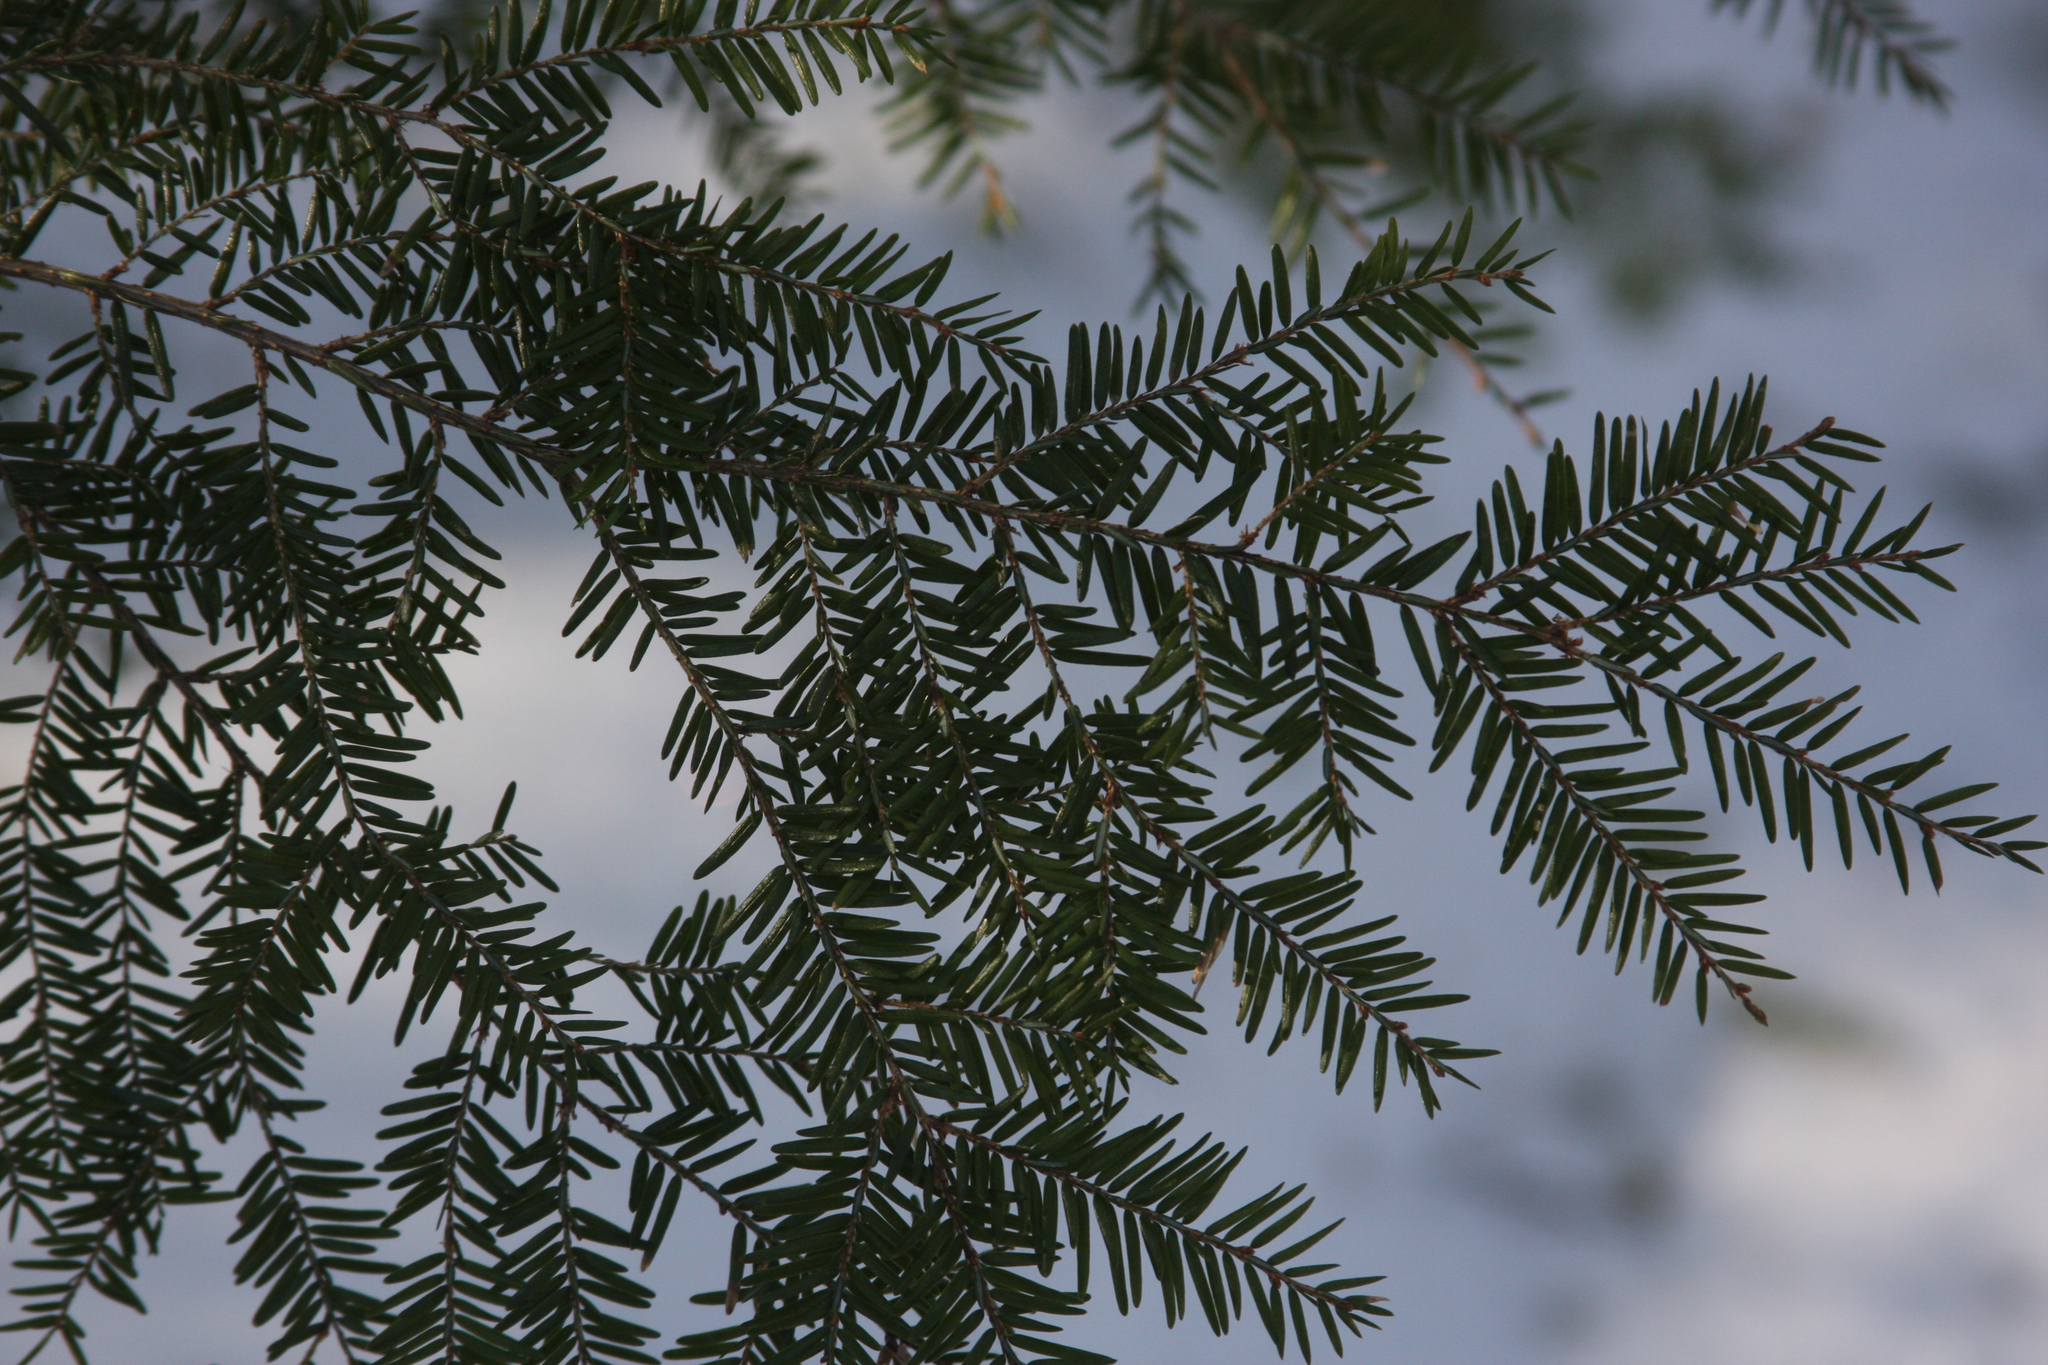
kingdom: Plantae
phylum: Tracheophyta
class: Pinopsida
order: Pinales
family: Pinaceae
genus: Tsuga
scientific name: Tsuga canadensis
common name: Eastern hemlock
